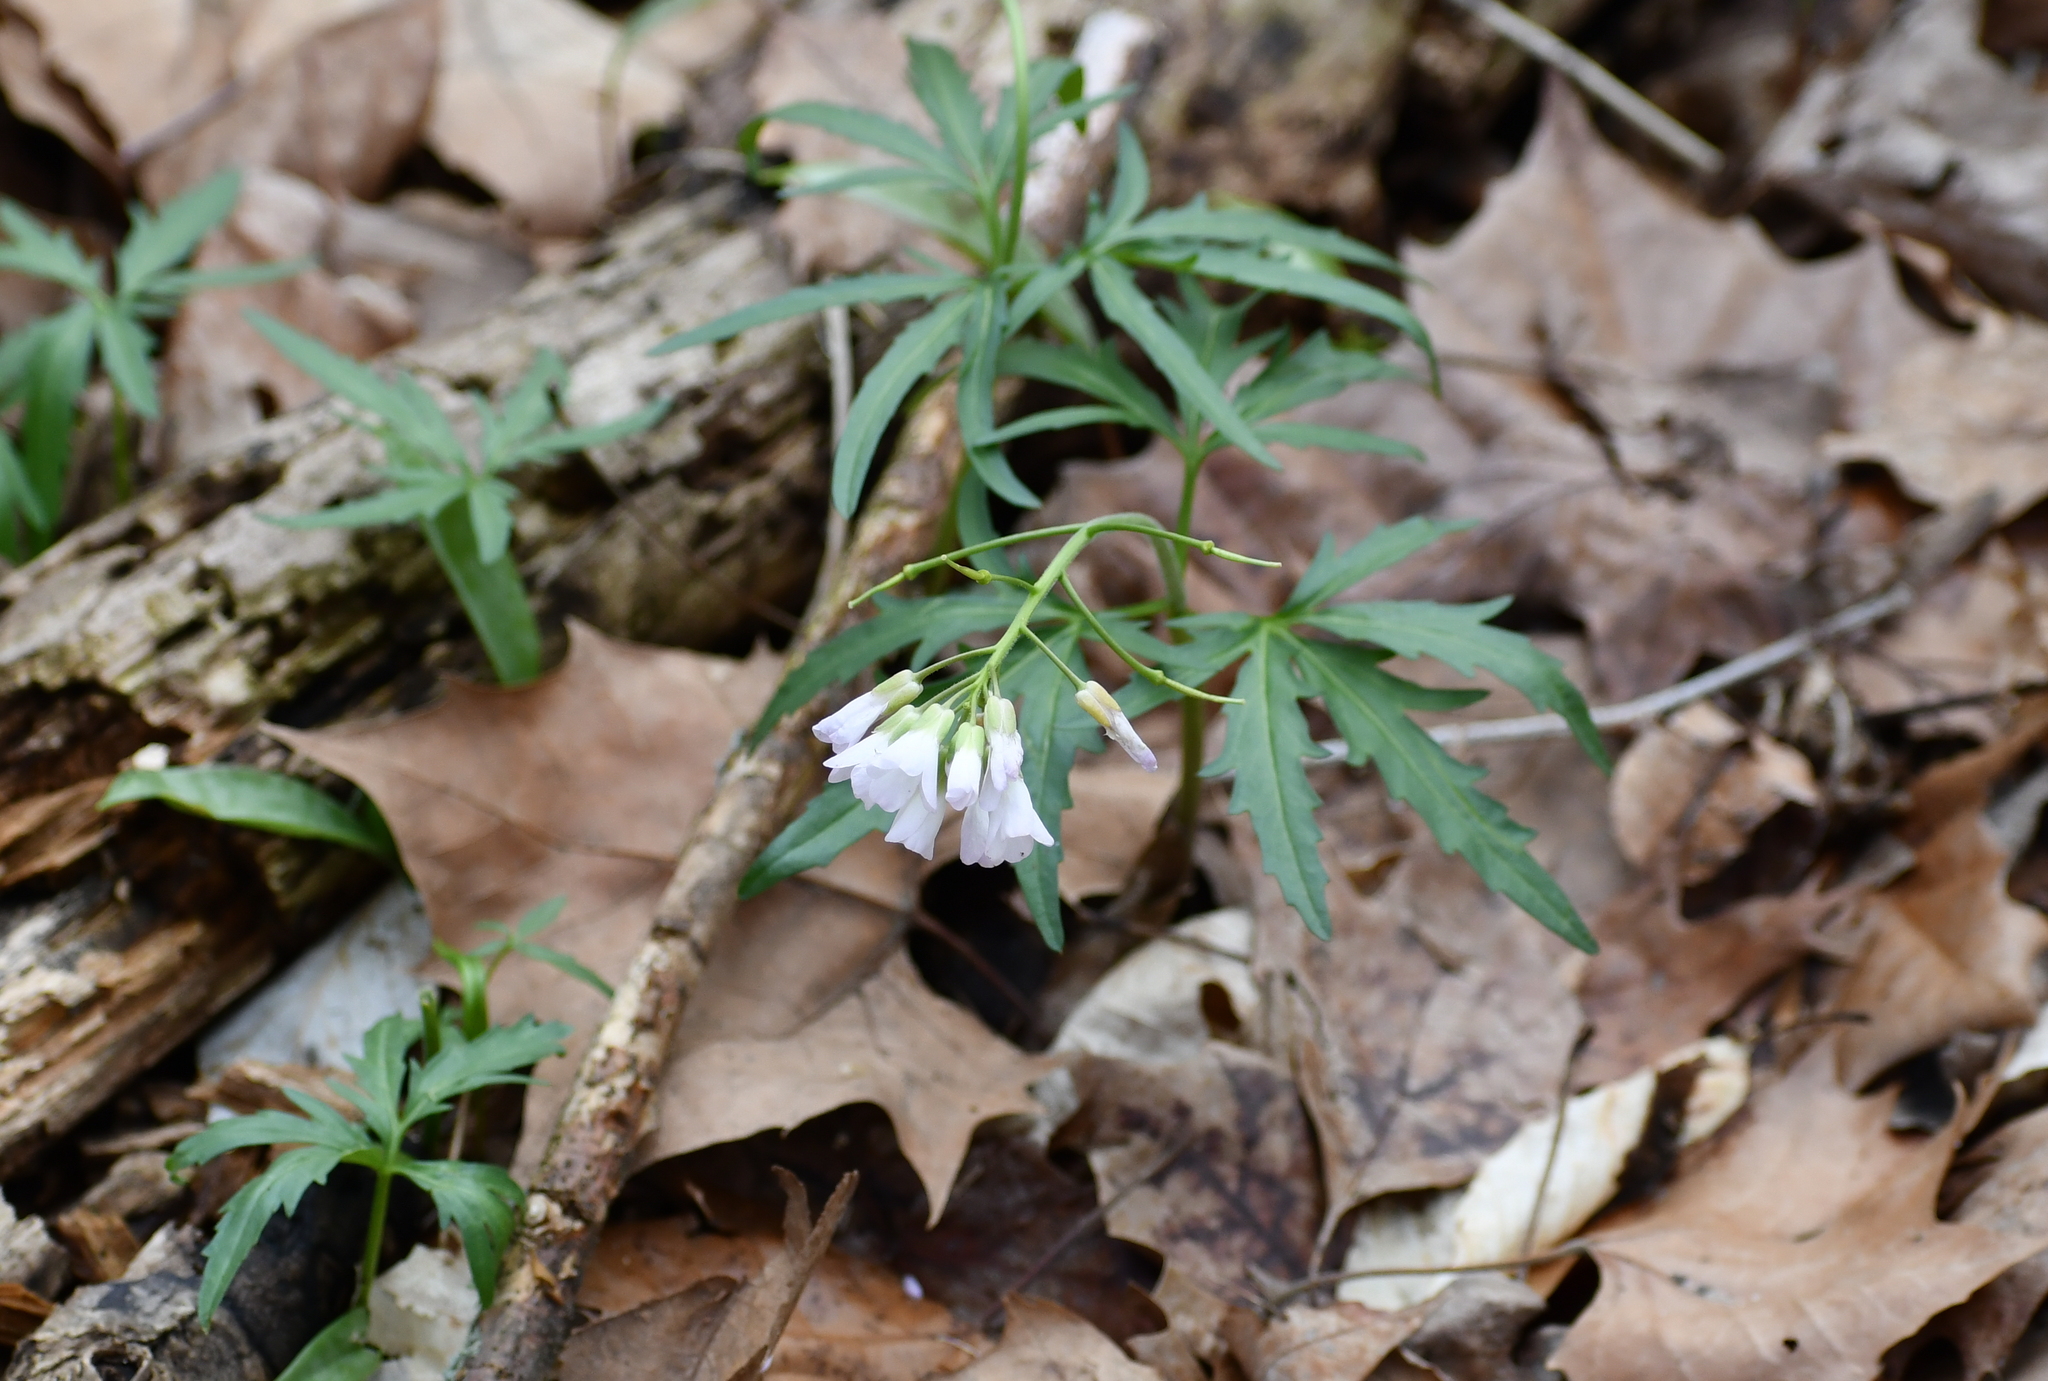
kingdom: Plantae
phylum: Tracheophyta
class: Magnoliopsida
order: Brassicales
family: Brassicaceae
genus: Cardamine
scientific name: Cardamine concatenata
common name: Cut-leaf toothcup
